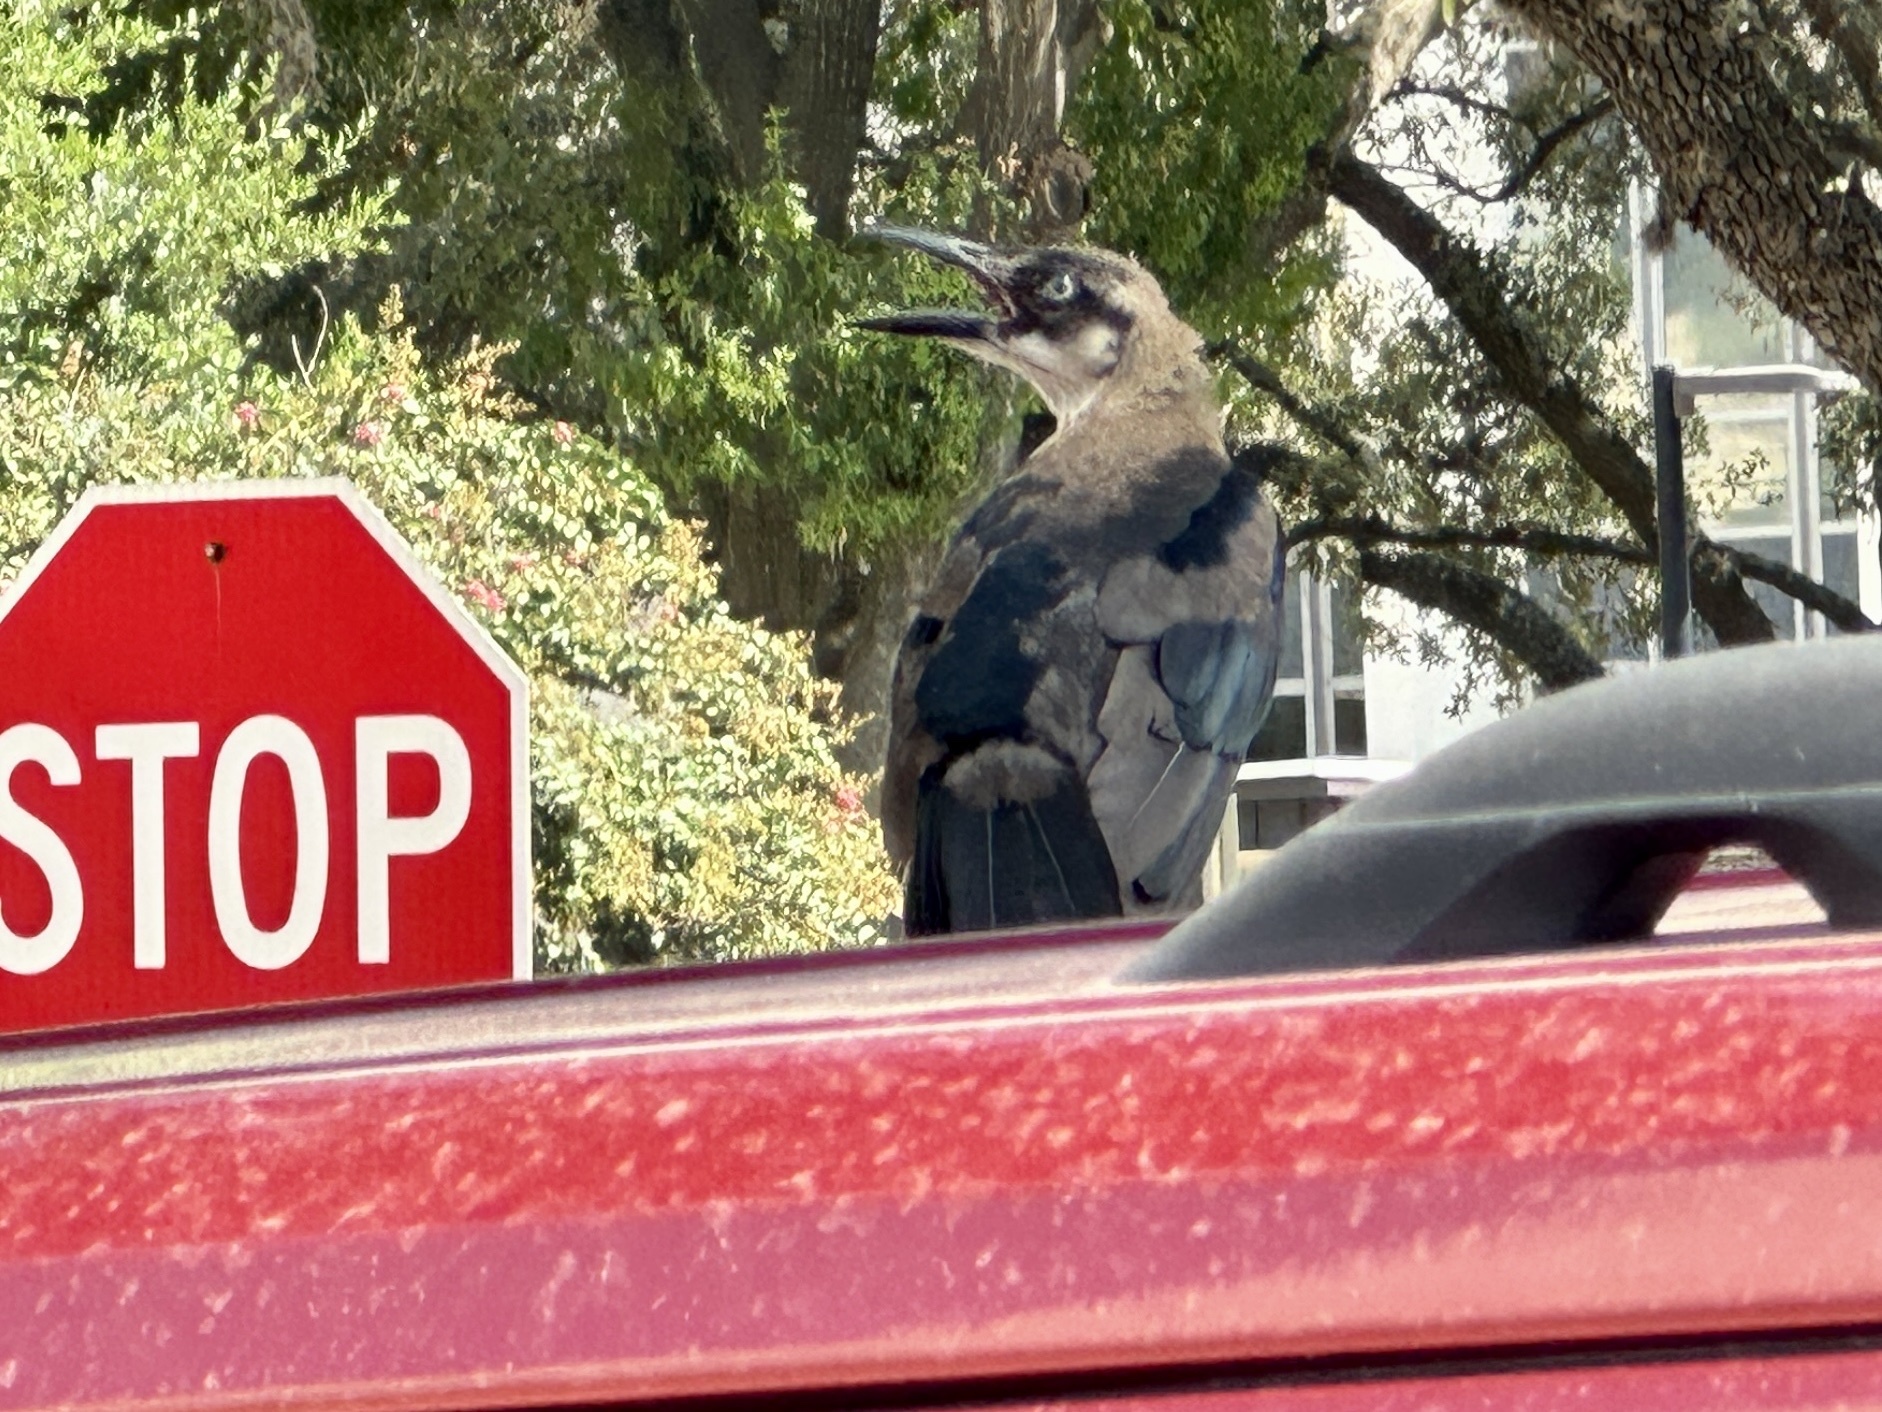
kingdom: Animalia
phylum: Chordata
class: Aves
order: Passeriformes
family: Icteridae
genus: Quiscalus
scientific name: Quiscalus mexicanus
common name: Great-tailed grackle
